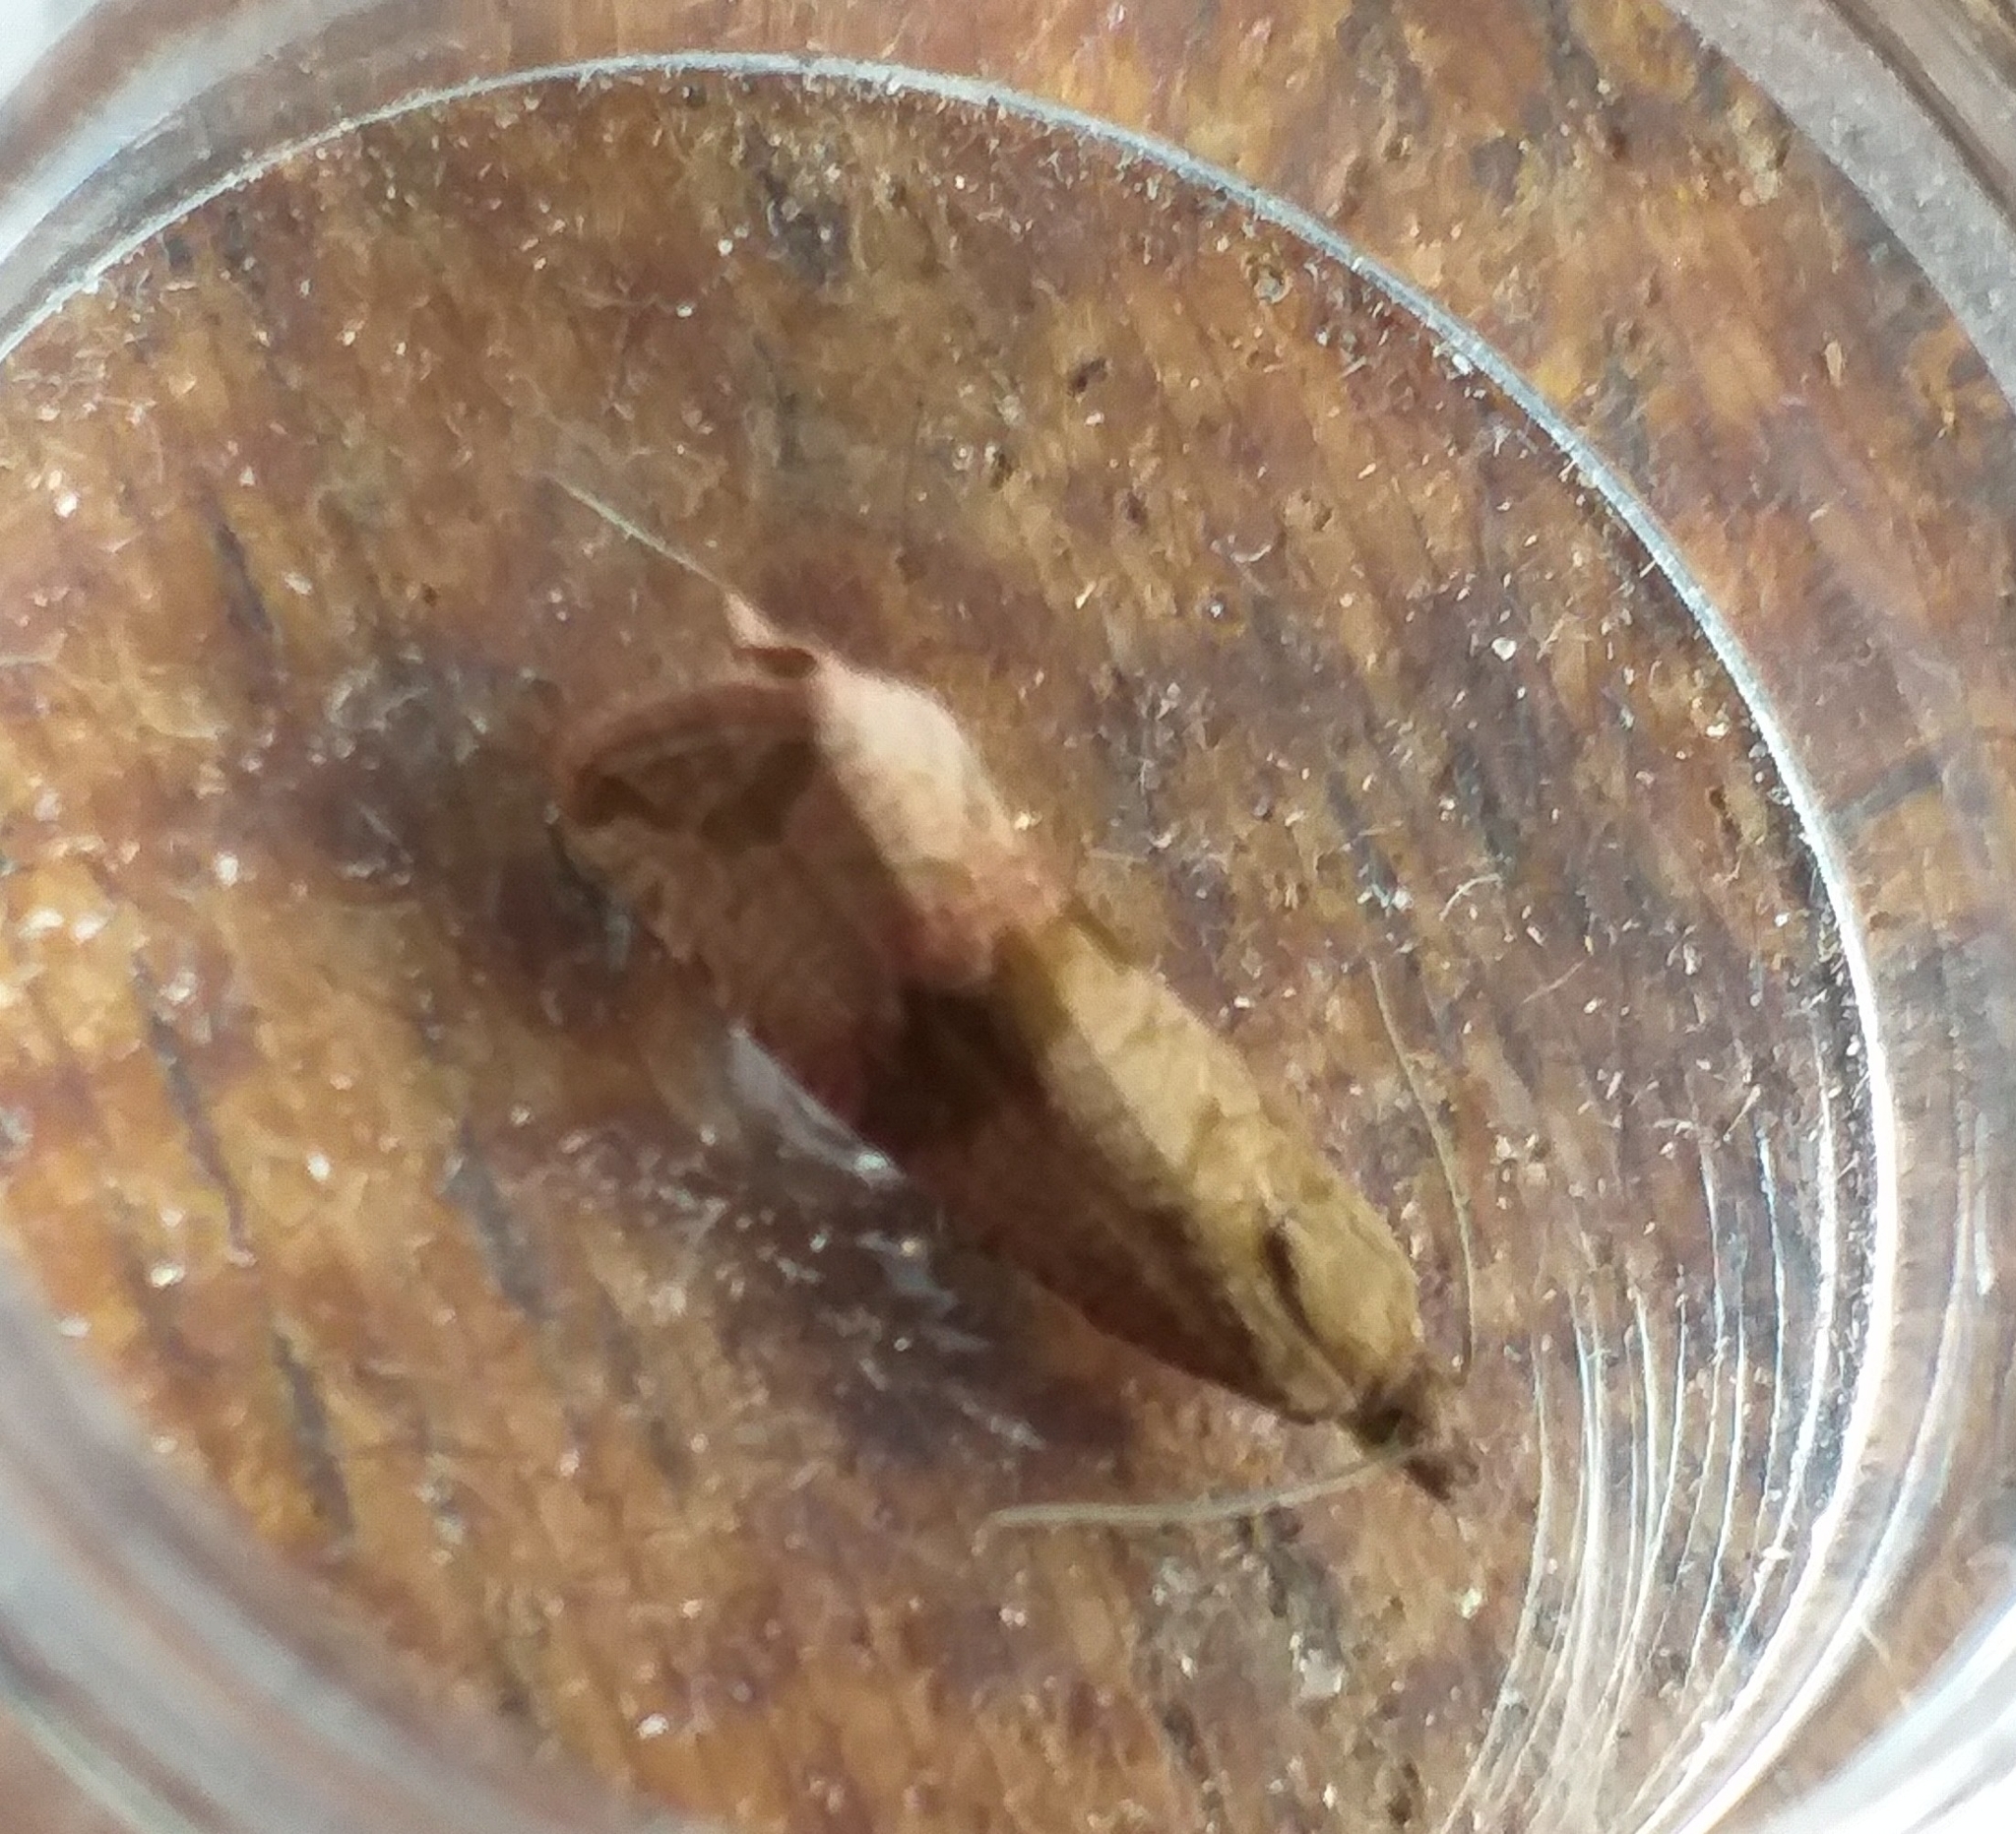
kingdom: Animalia
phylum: Arthropoda
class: Insecta
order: Lepidoptera
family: Tortricidae
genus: Celypha
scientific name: Celypha striana
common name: Barred marble
